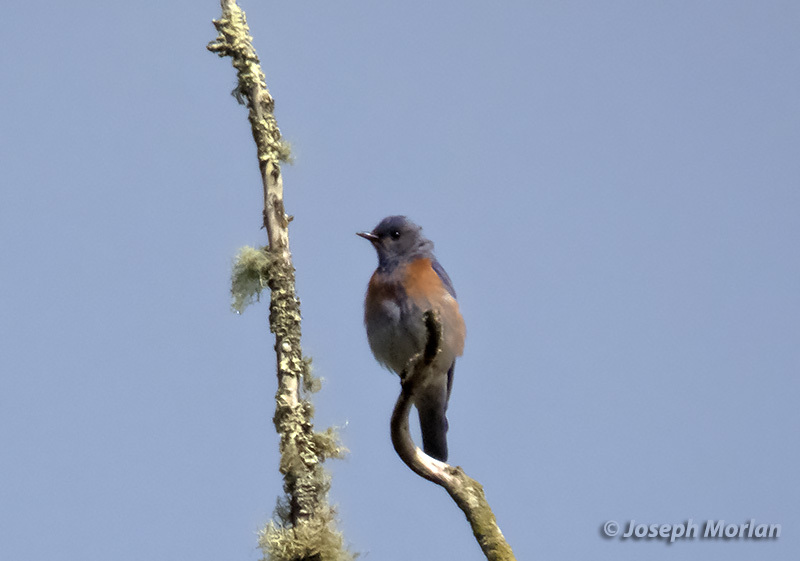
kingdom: Animalia
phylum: Chordata
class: Aves
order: Passeriformes
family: Turdidae
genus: Sialia
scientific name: Sialia mexicana
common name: Western bluebird
